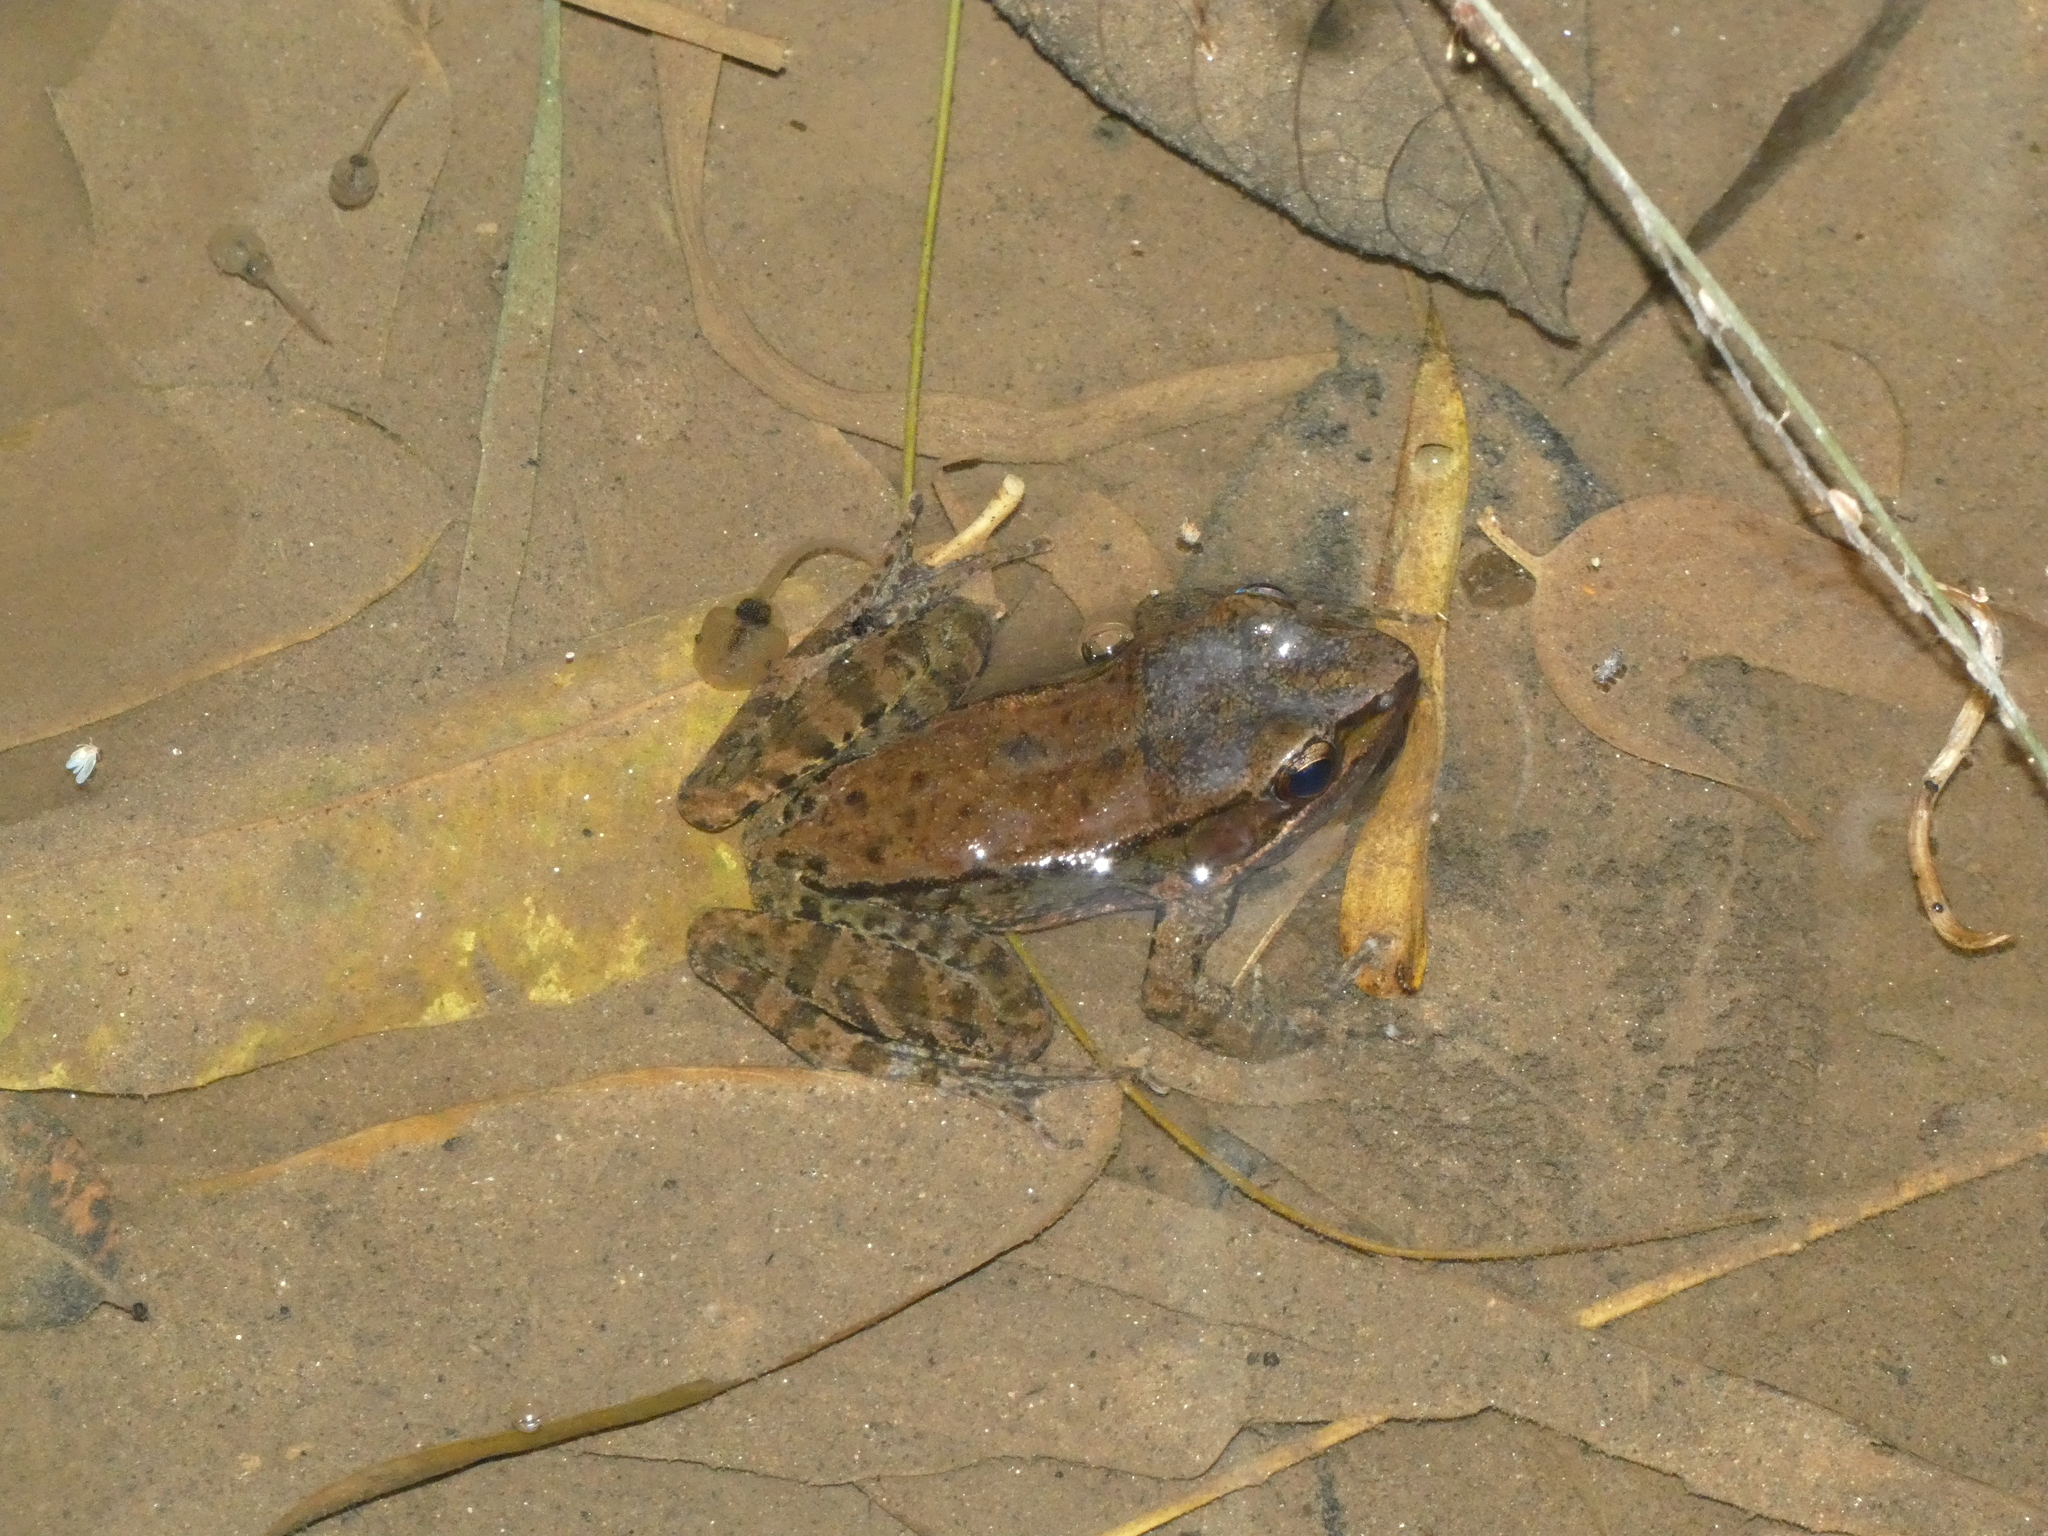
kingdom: Animalia
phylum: Chordata
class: Amphibia
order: Anura
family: Ranidae
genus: Sylvirana
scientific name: Sylvirana nigrovittata
